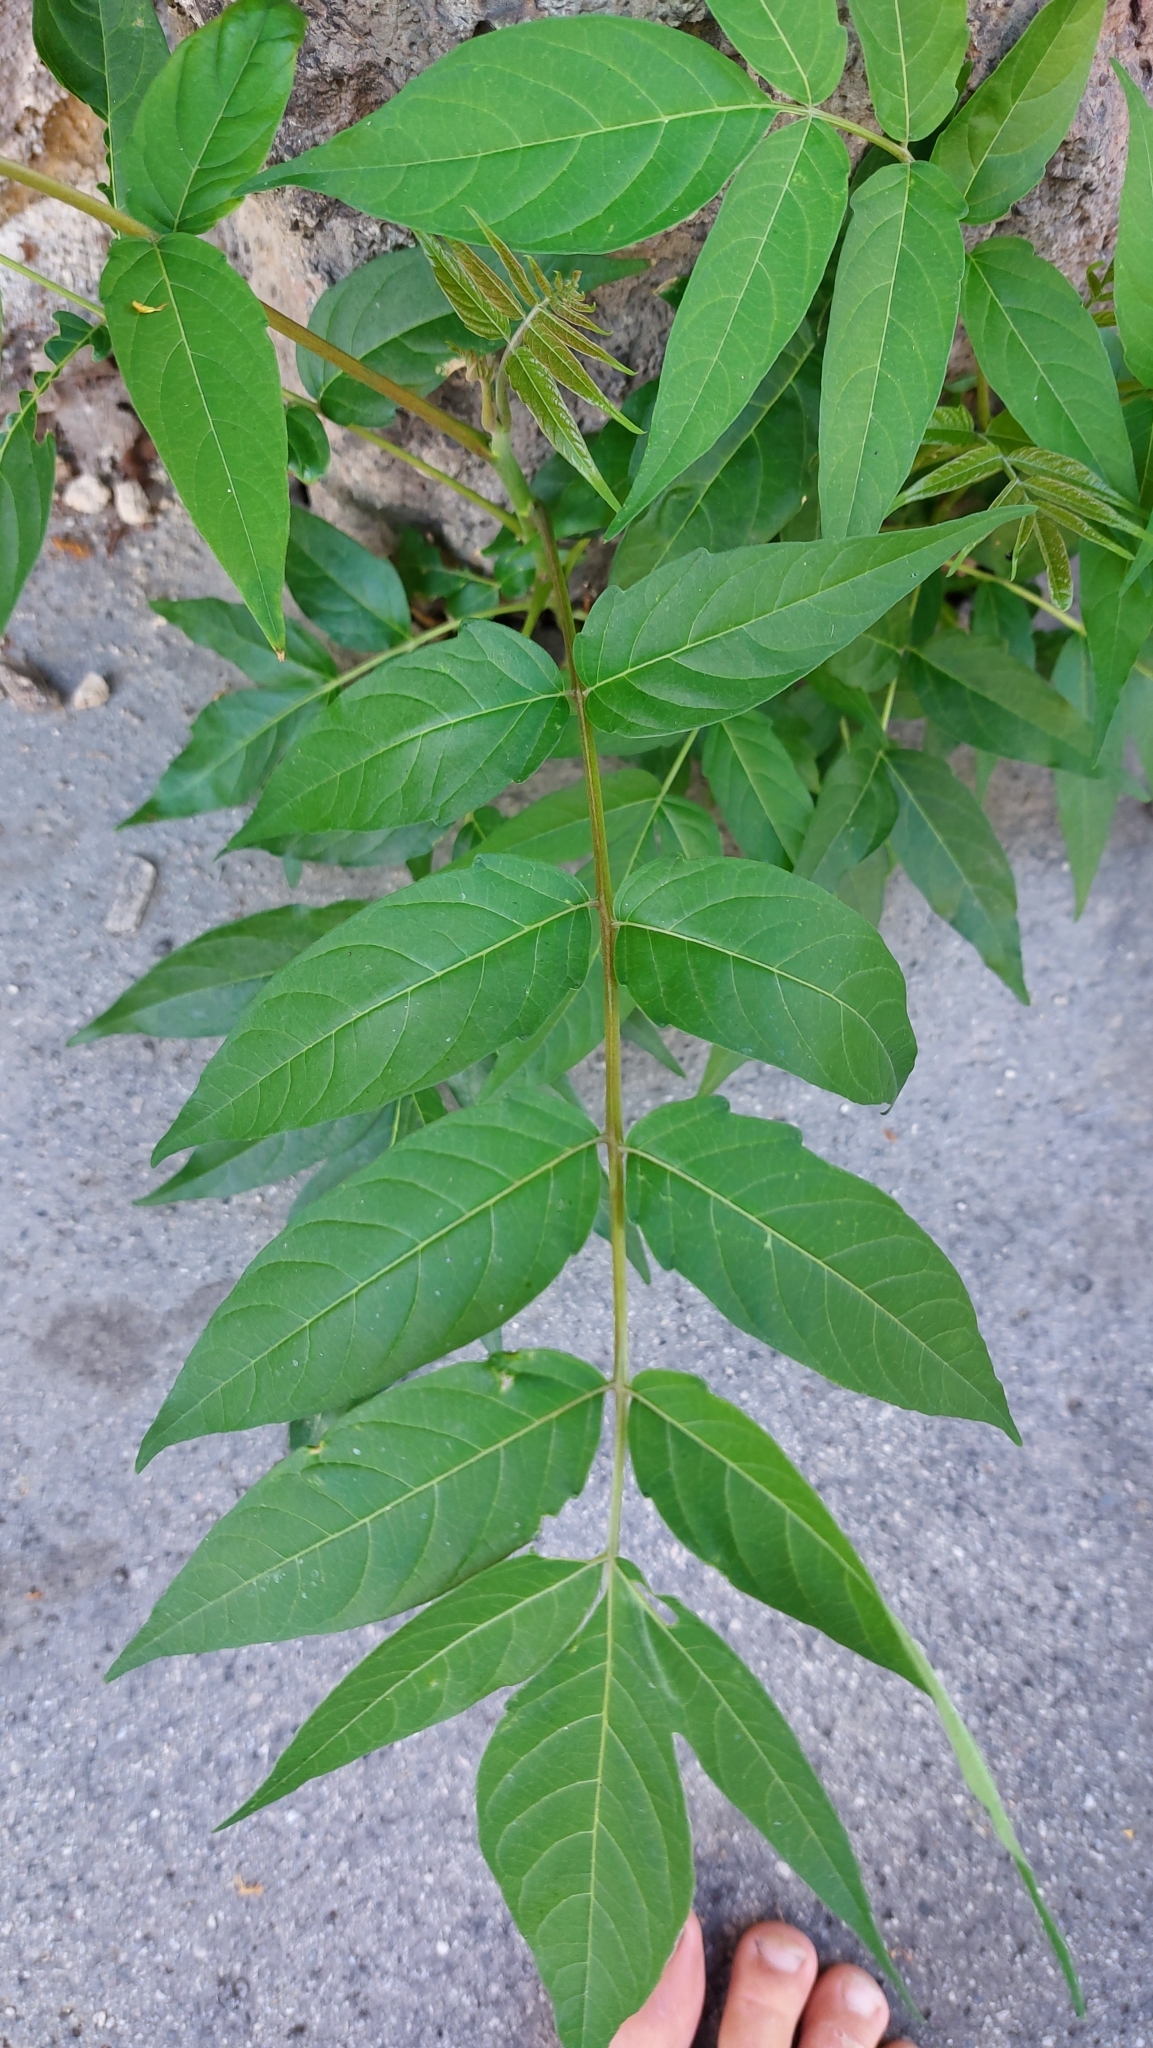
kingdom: Plantae
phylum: Tracheophyta
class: Magnoliopsida
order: Sapindales
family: Simaroubaceae
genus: Ailanthus
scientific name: Ailanthus altissima
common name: Tree-of-heaven
